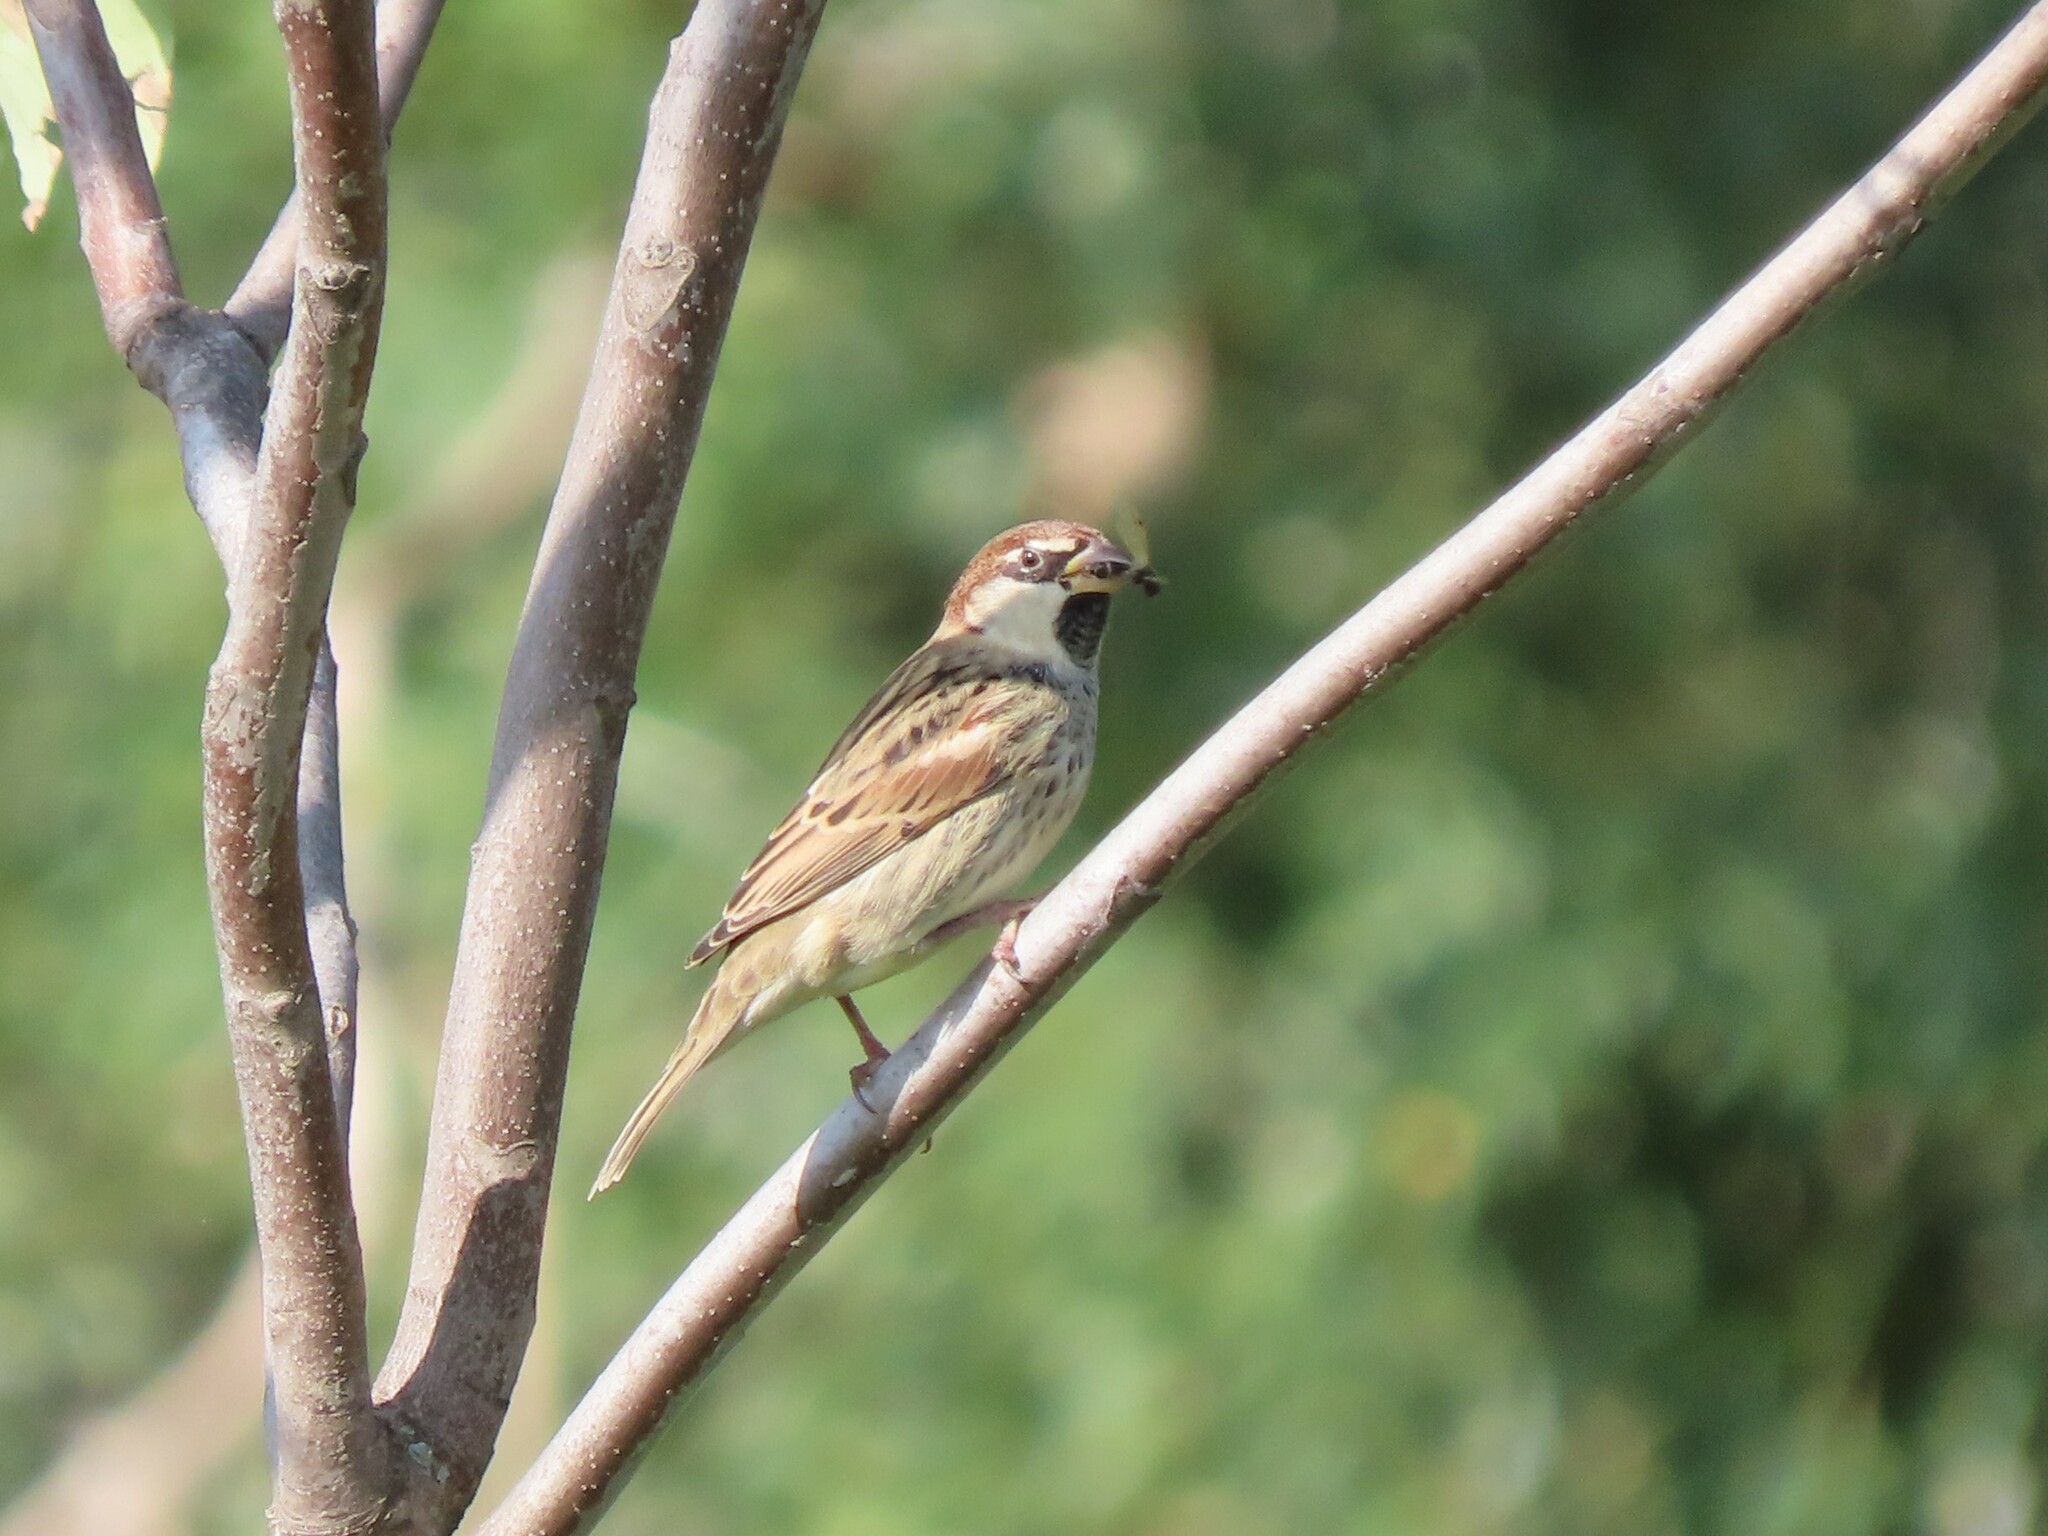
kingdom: Animalia
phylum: Chordata
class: Aves
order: Passeriformes
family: Passeridae
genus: Passer
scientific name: Passer hispaniolensis
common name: Spanish sparrow
